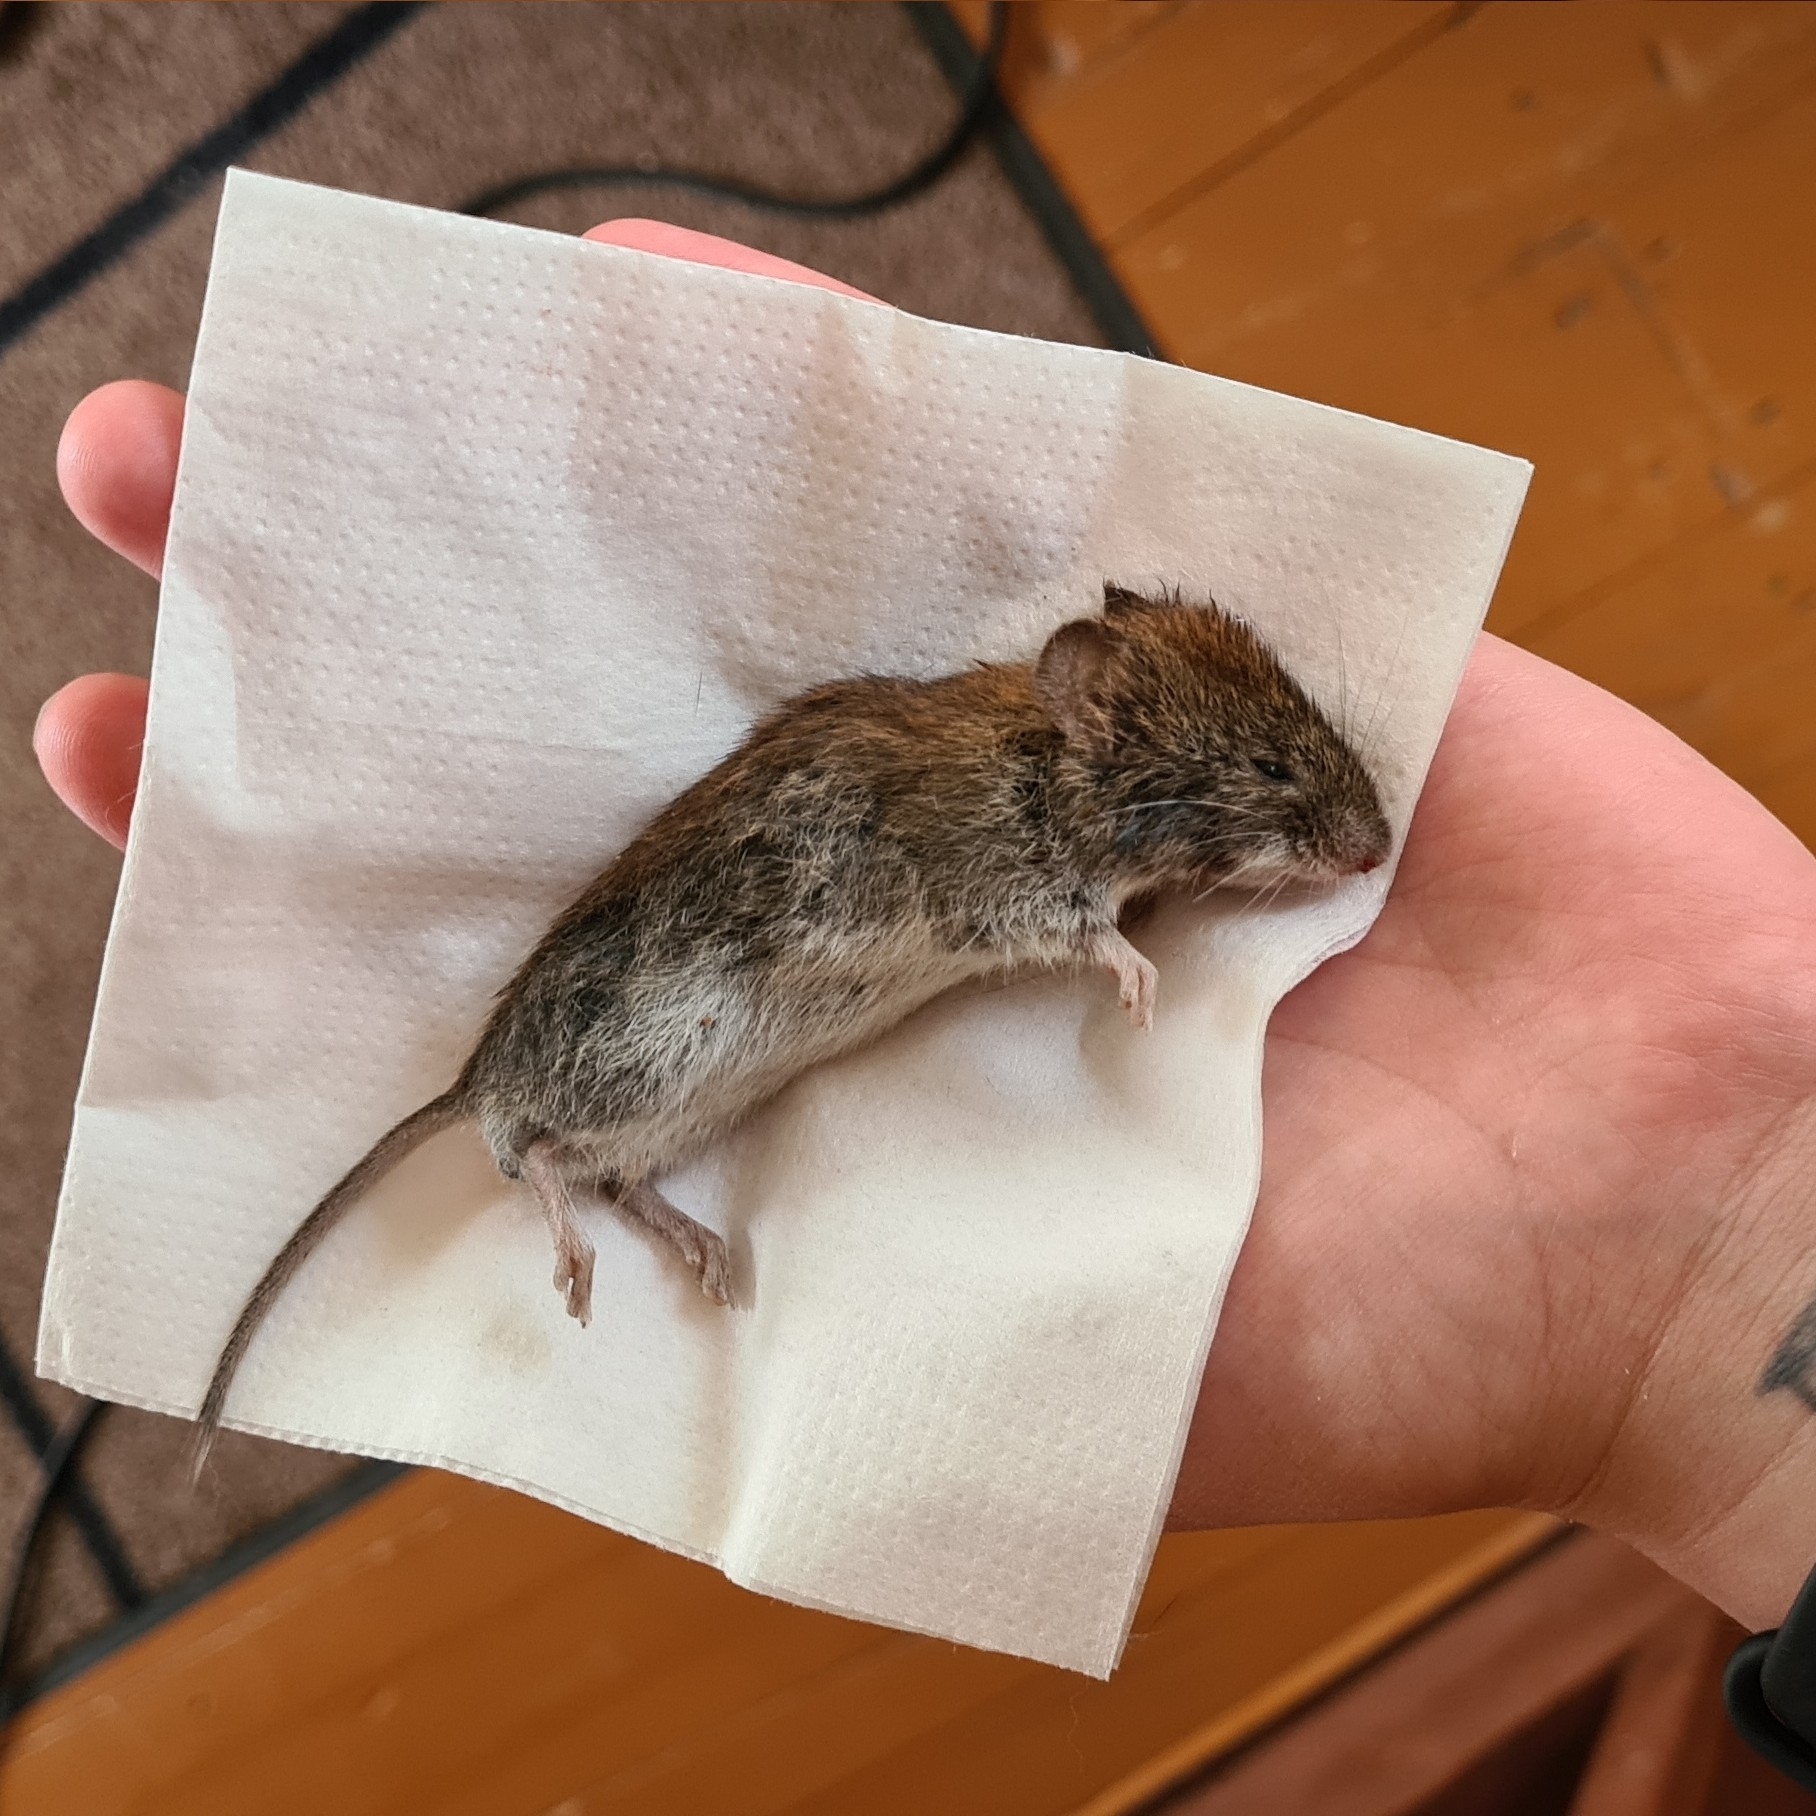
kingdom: Animalia
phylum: Chordata
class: Mammalia
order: Rodentia
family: Cricetidae
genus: Myodes
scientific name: Myodes glareolus
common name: Bank vole
